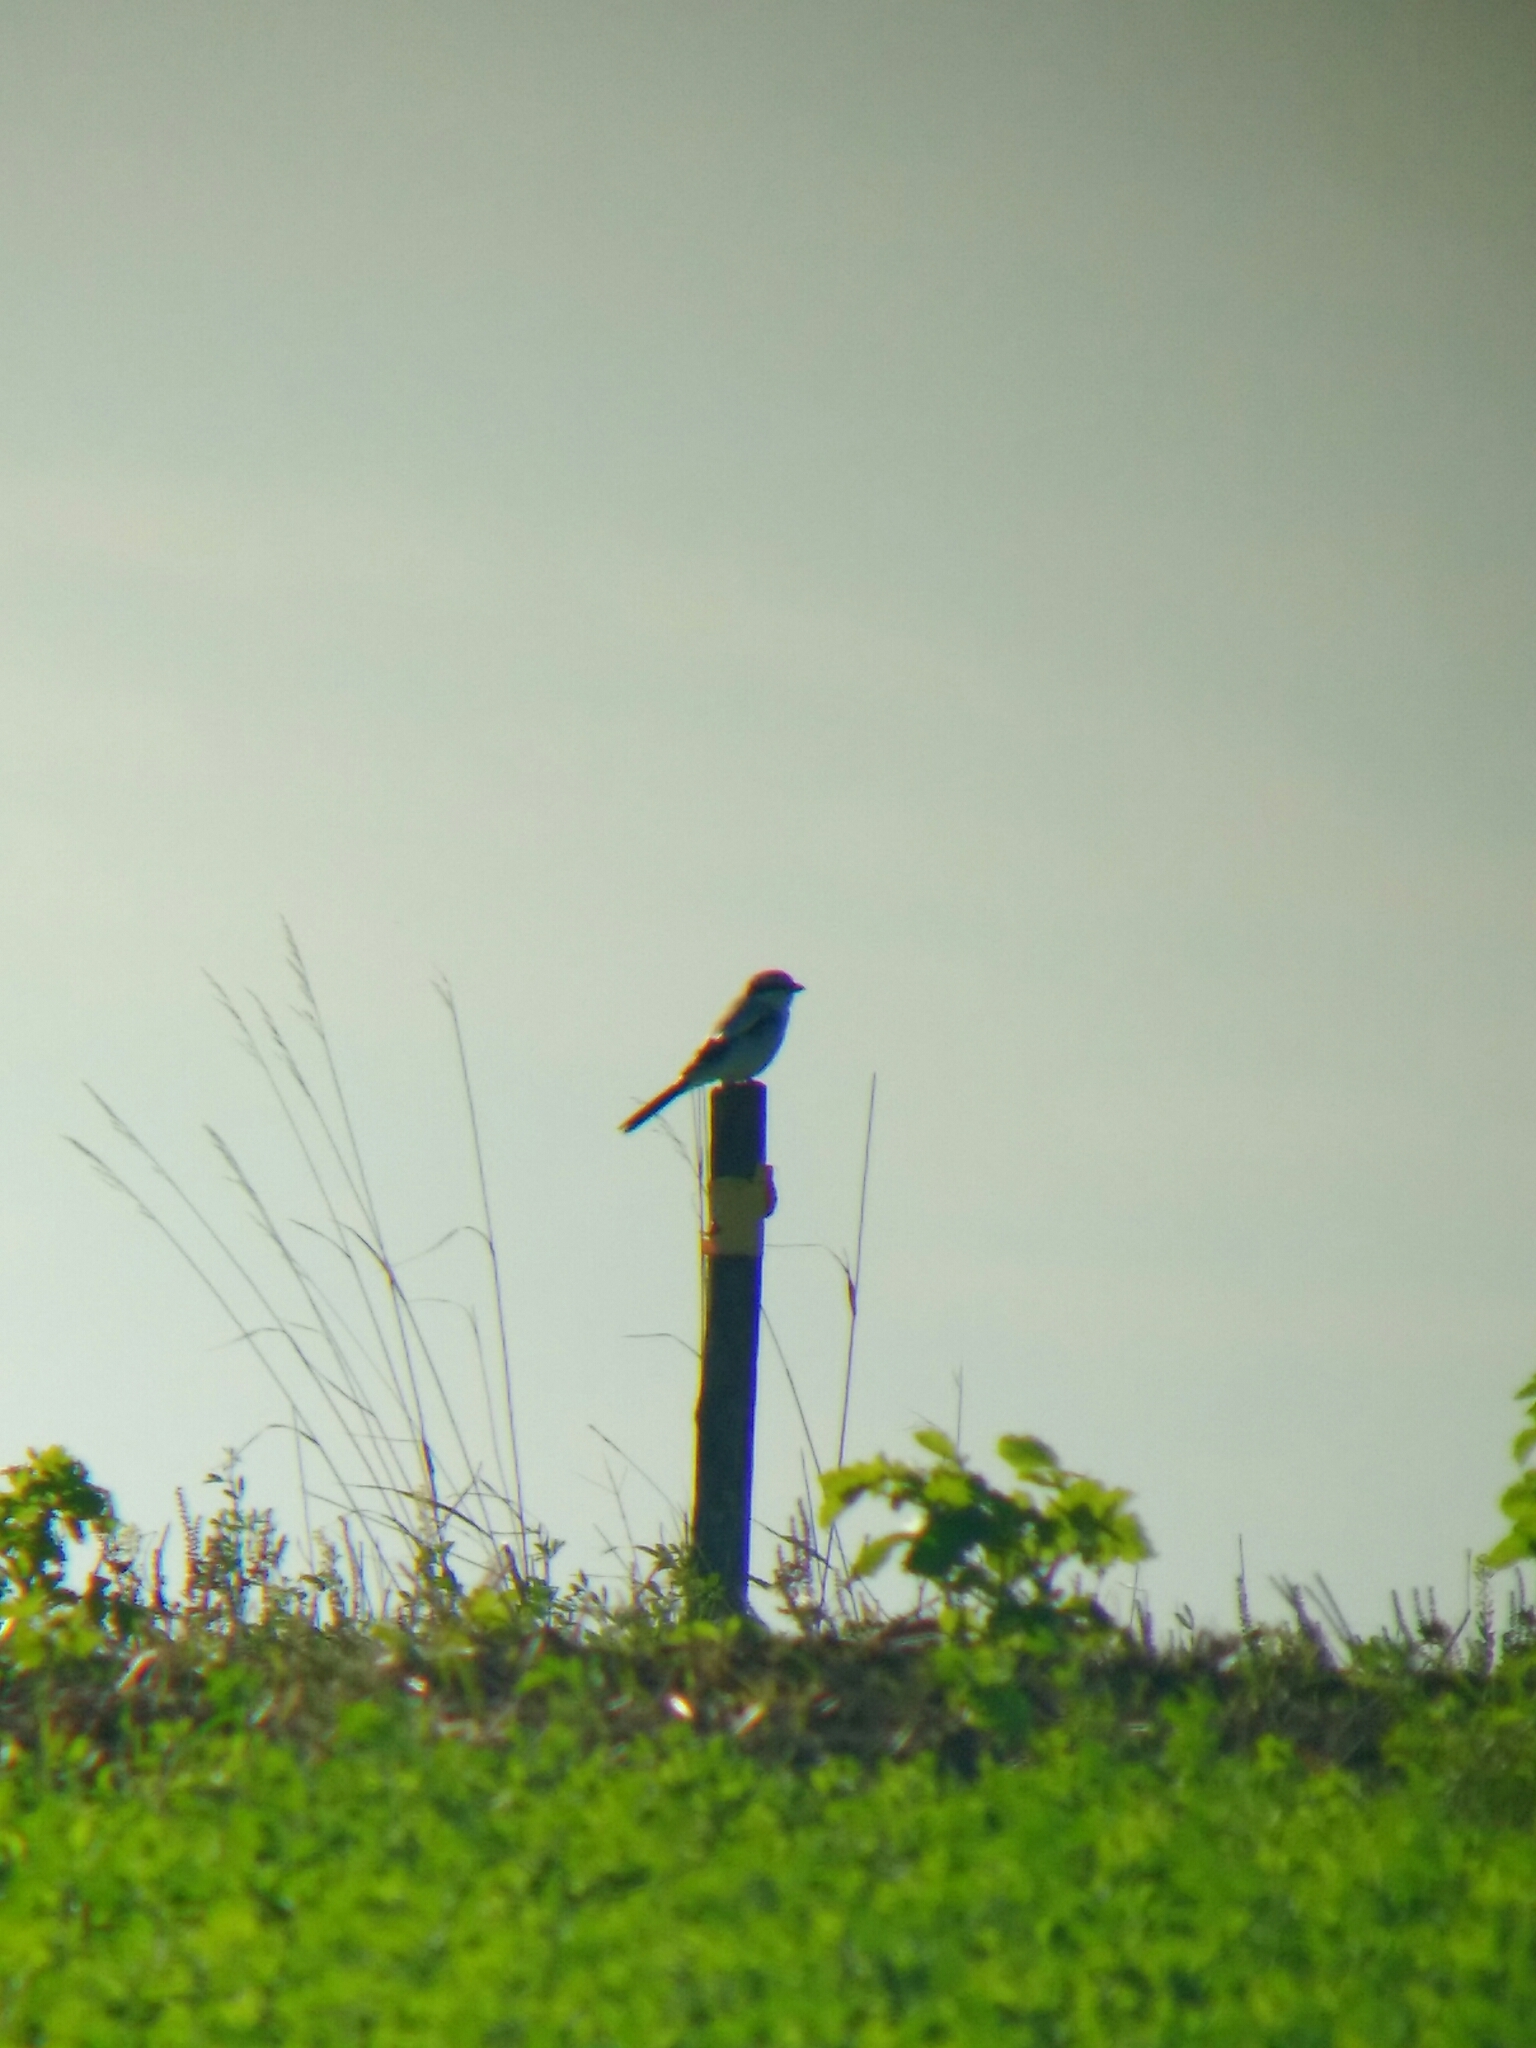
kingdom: Animalia
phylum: Chordata
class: Aves
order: Passeriformes
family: Laniidae
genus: Lanius
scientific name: Lanius excubitor
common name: Great grey shrike
